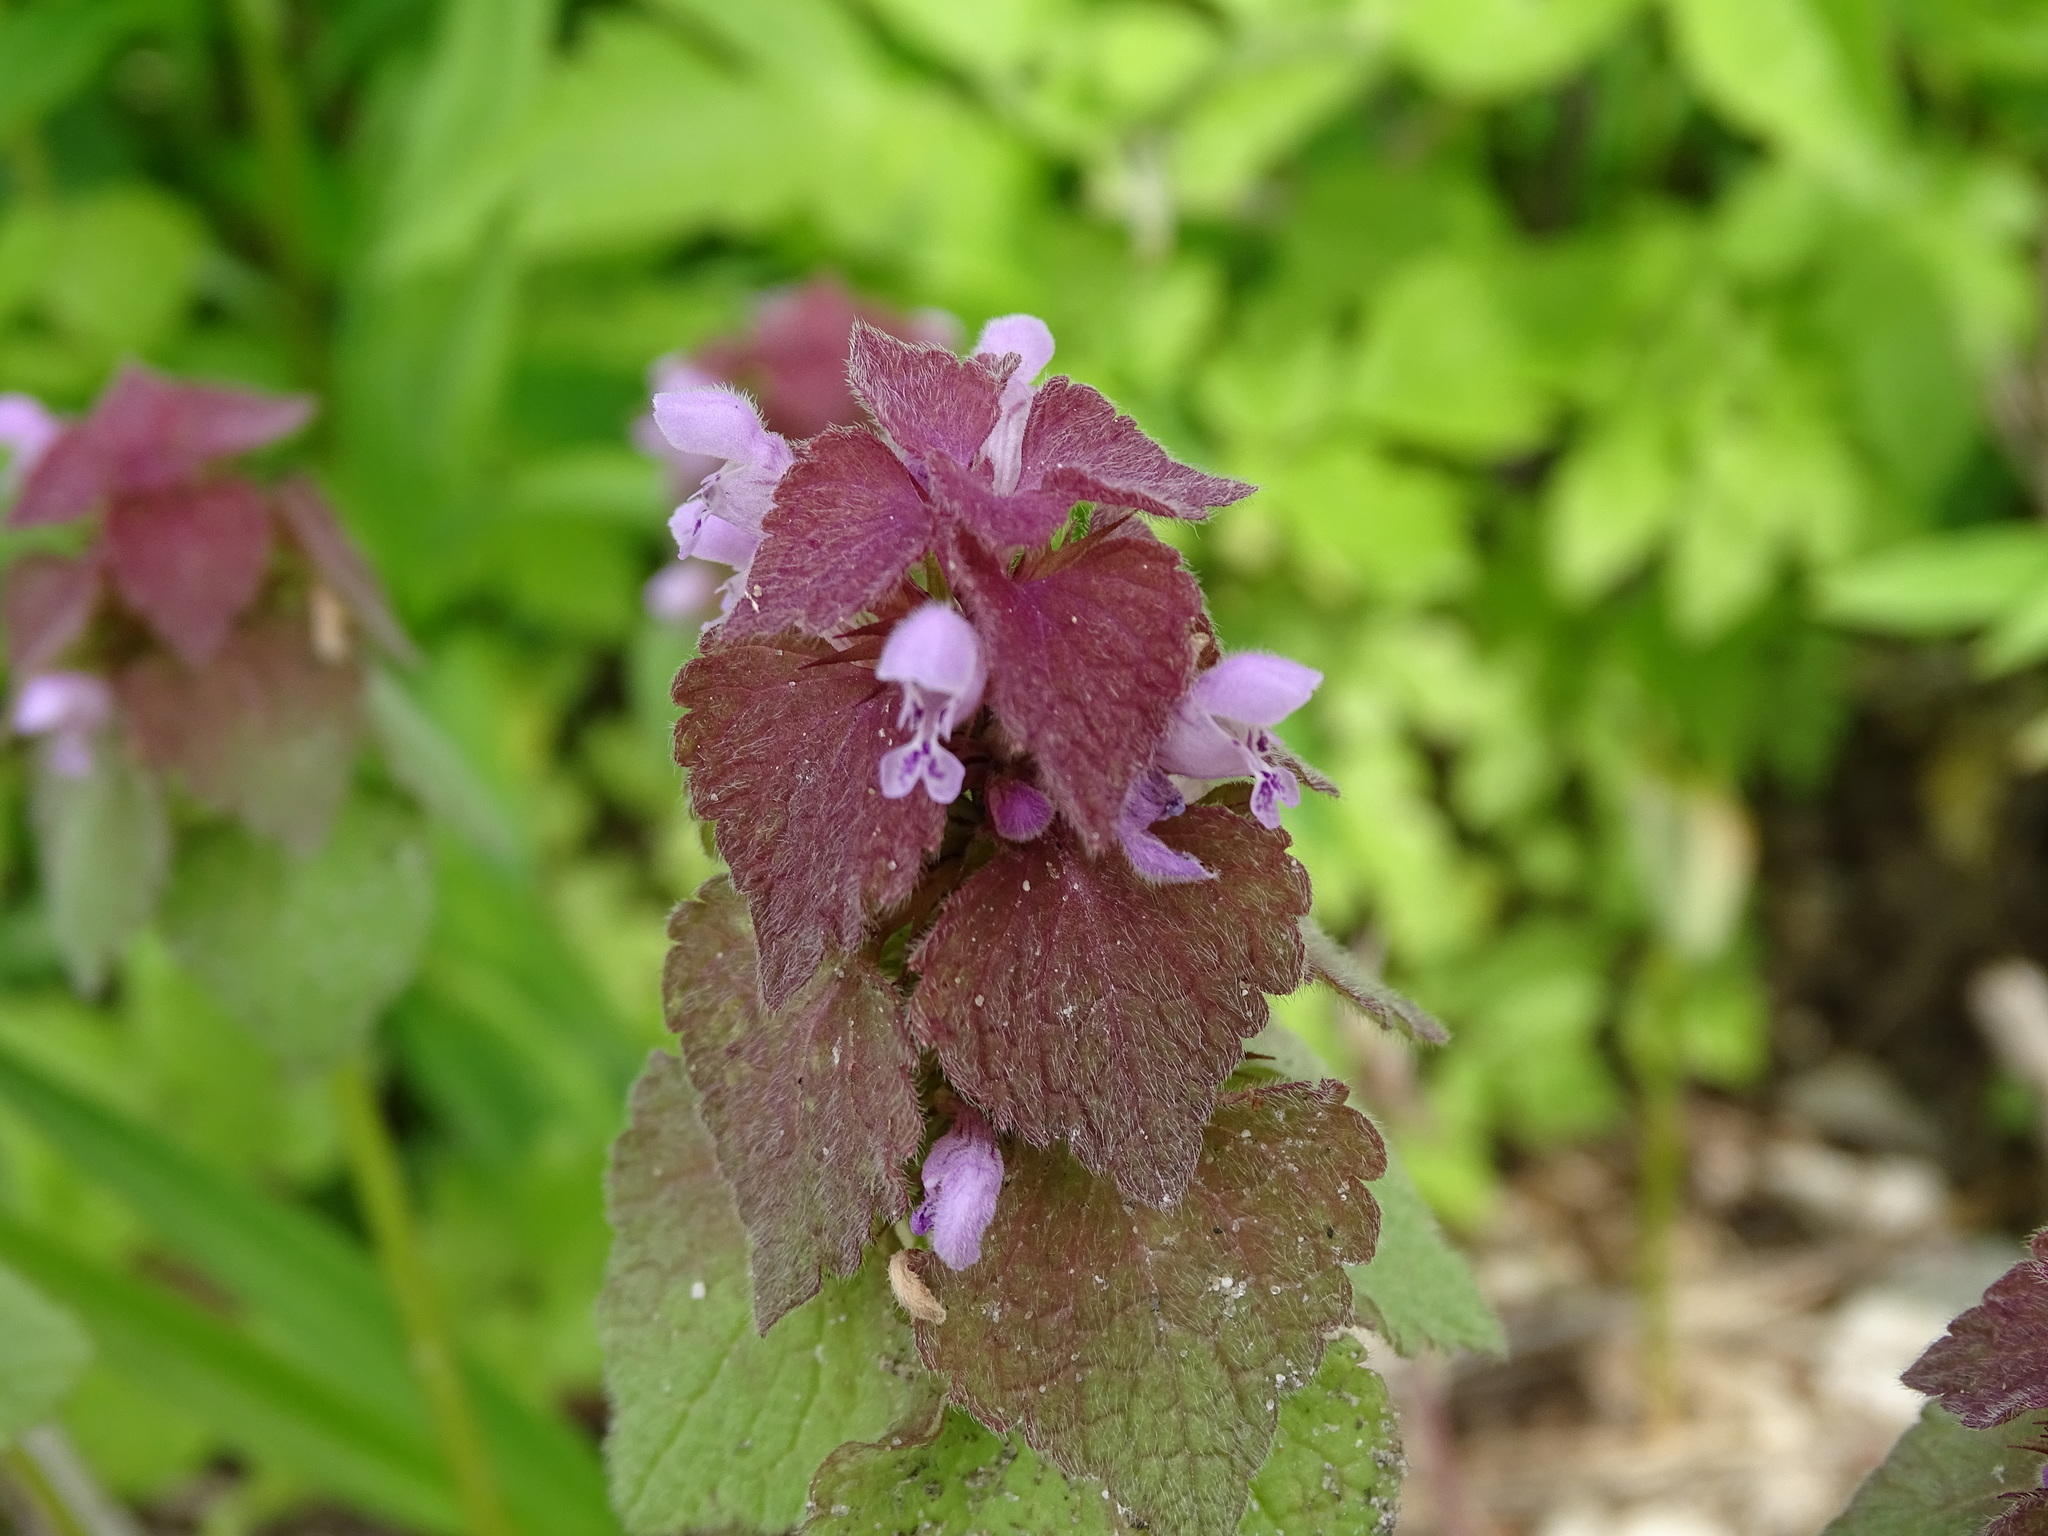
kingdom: Plantae
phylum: Tracheophyta
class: Magnoliopsida
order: Lamiales
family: Lamiaceae
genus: Lamium
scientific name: Lamium purpureum
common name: Red dead-nettle
